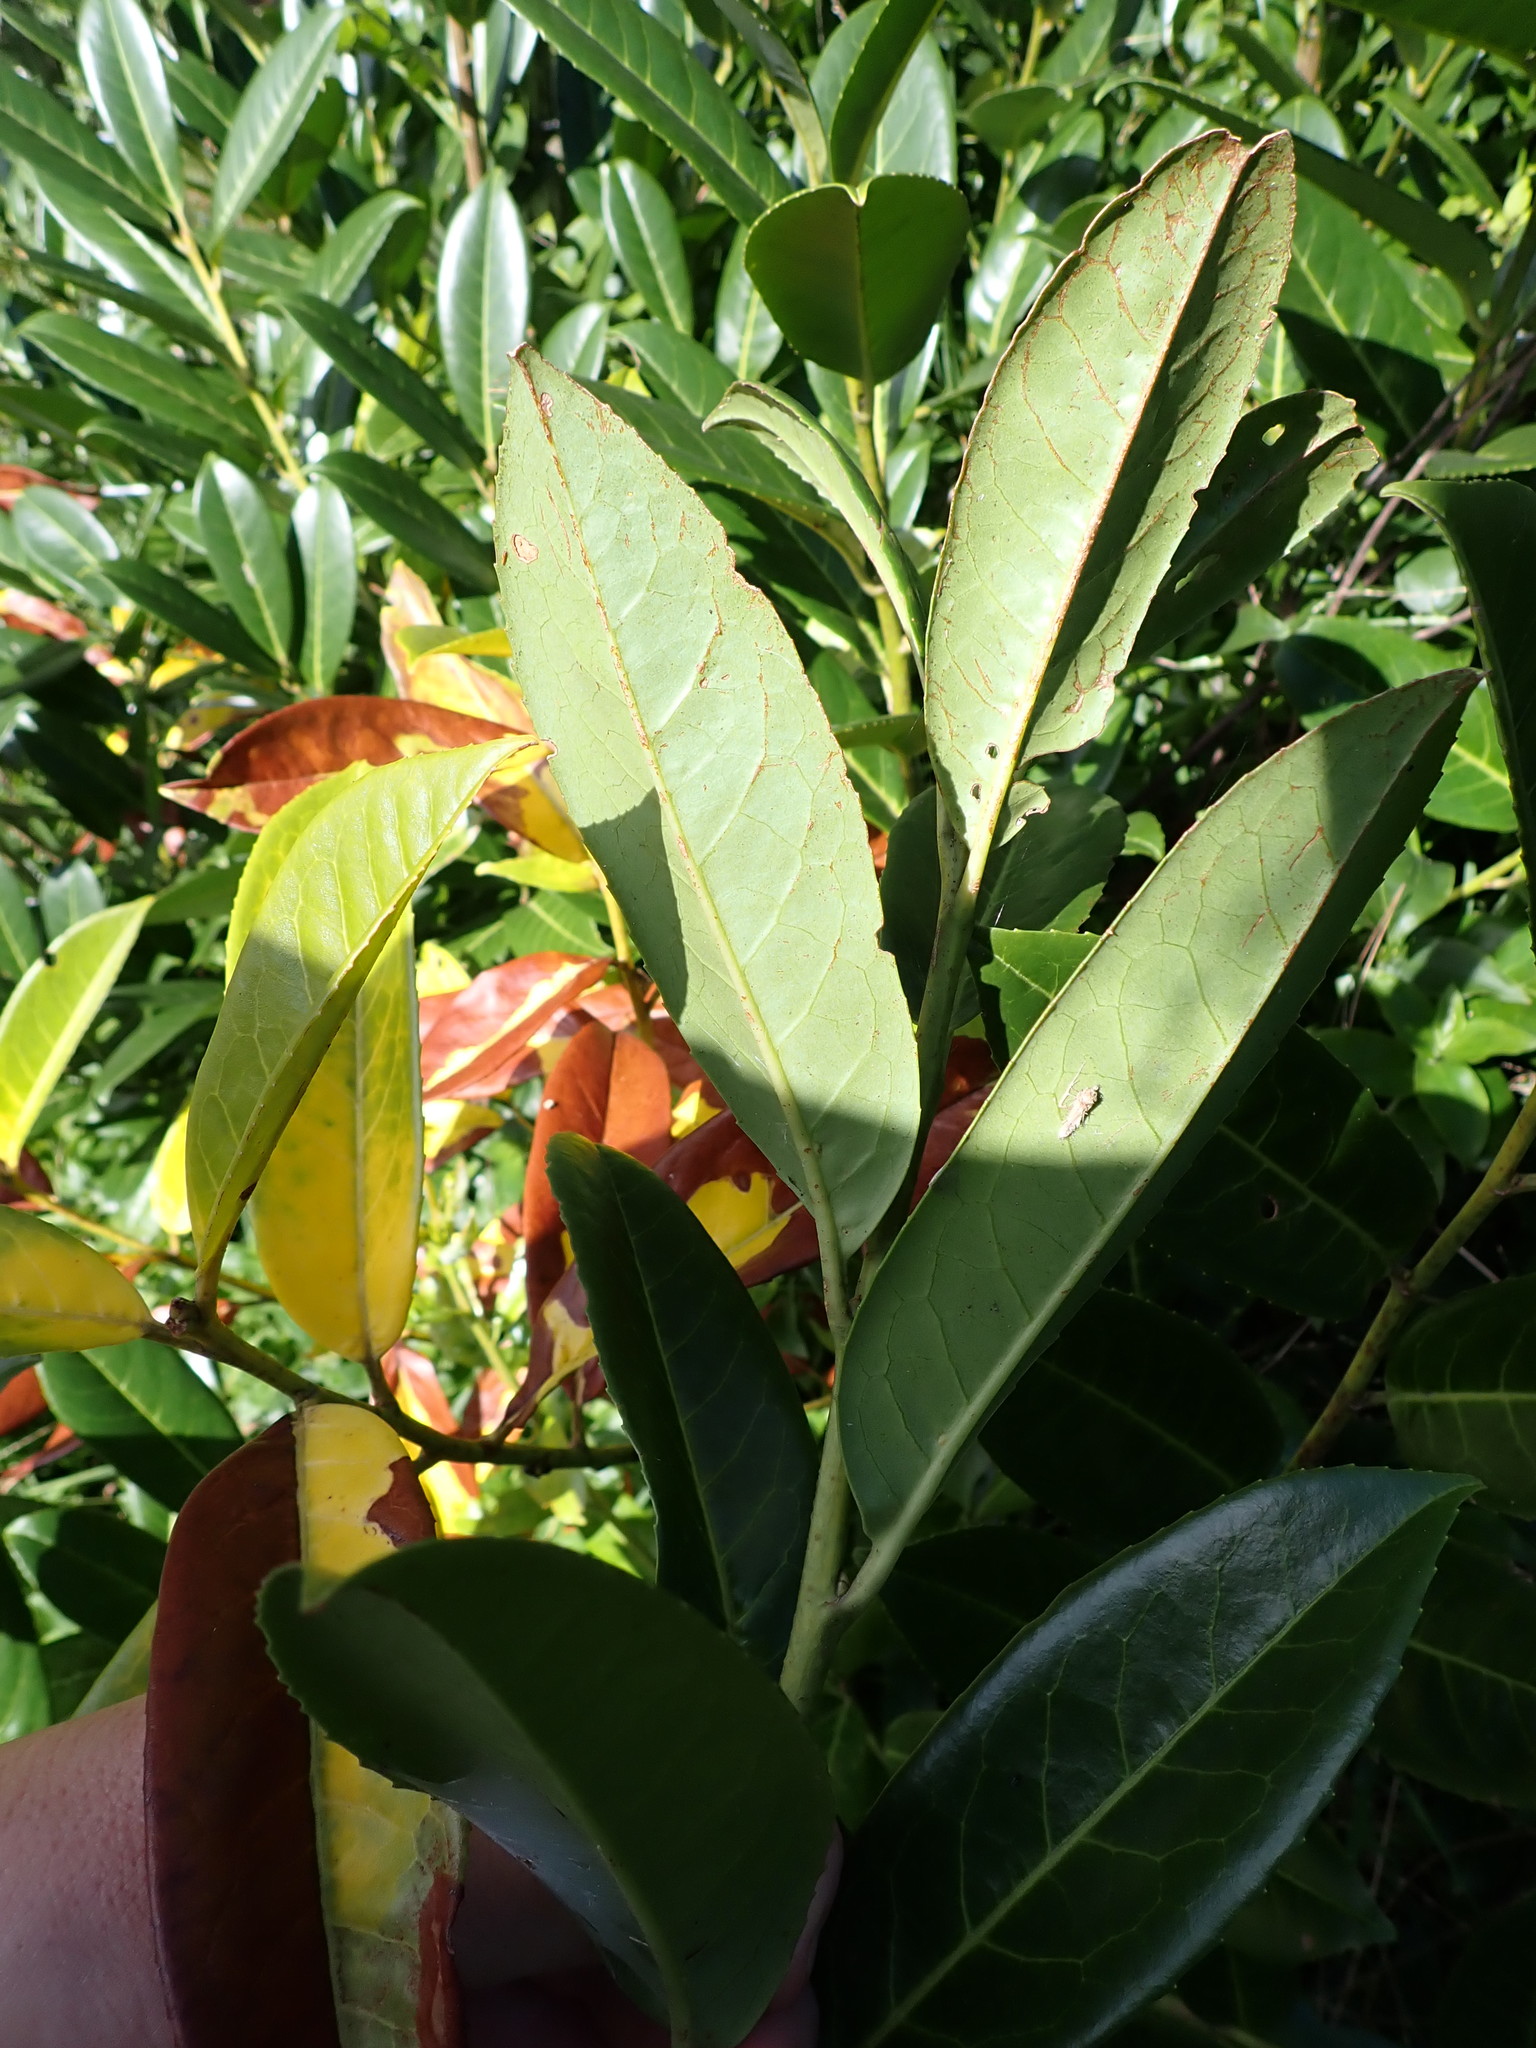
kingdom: Plantae
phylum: Tracheophyta
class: Magnoliopsida
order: Rosales
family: Rosaceae
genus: Prunus
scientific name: Prunus laurocerasus
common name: Cherry laurel
